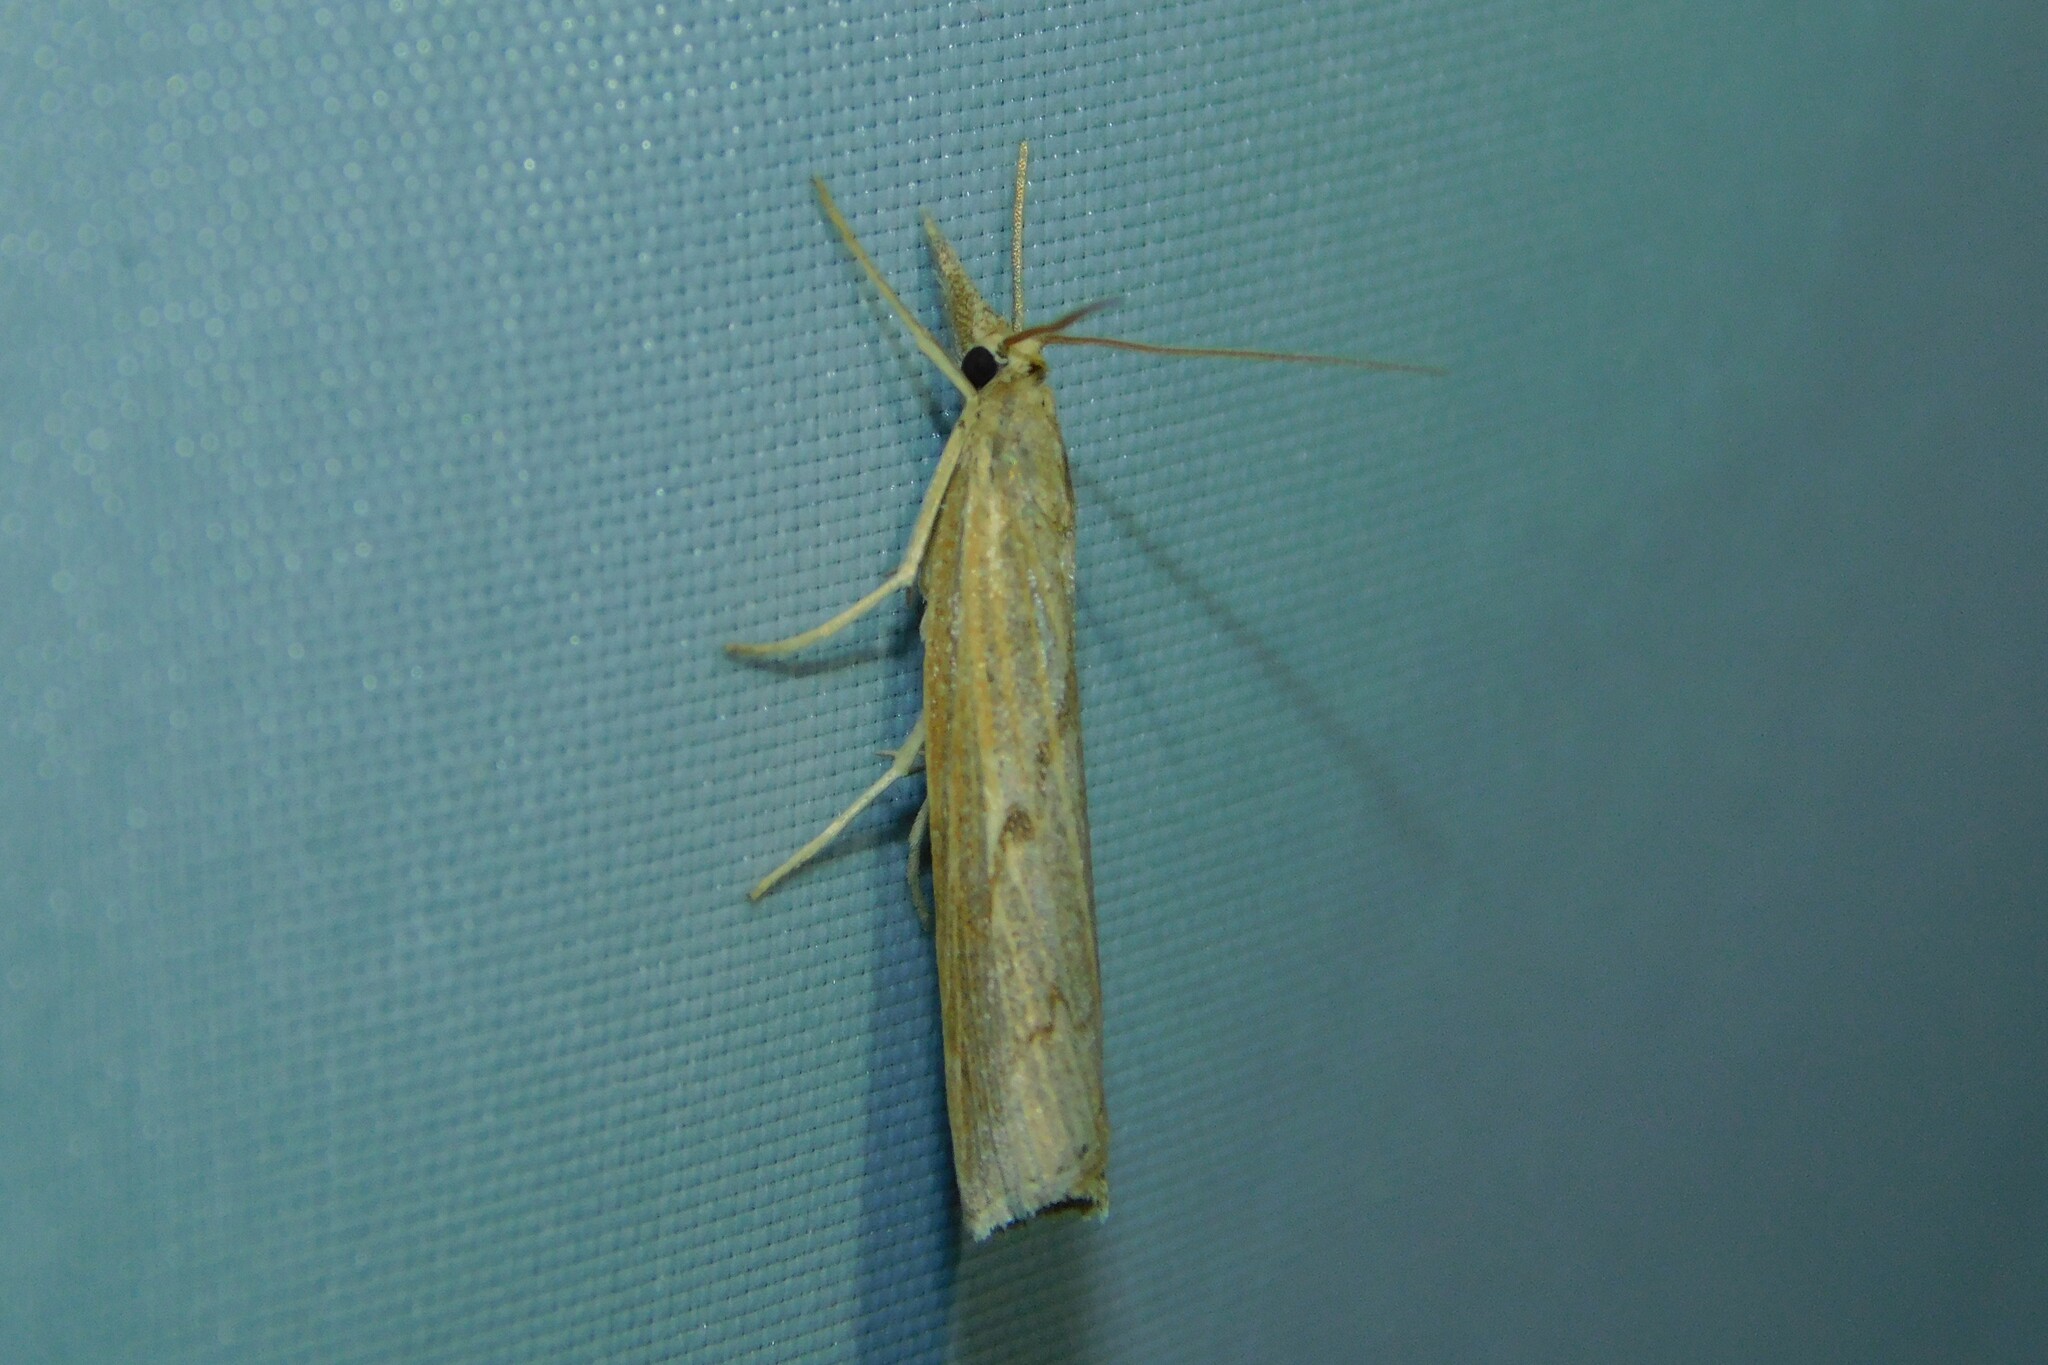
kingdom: Animalia
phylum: Arthropoda
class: Insecta
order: Lepidoptera
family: Crambidae
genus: Pediasia
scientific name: Pediasia contaminella
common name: Waste grass-veneer
